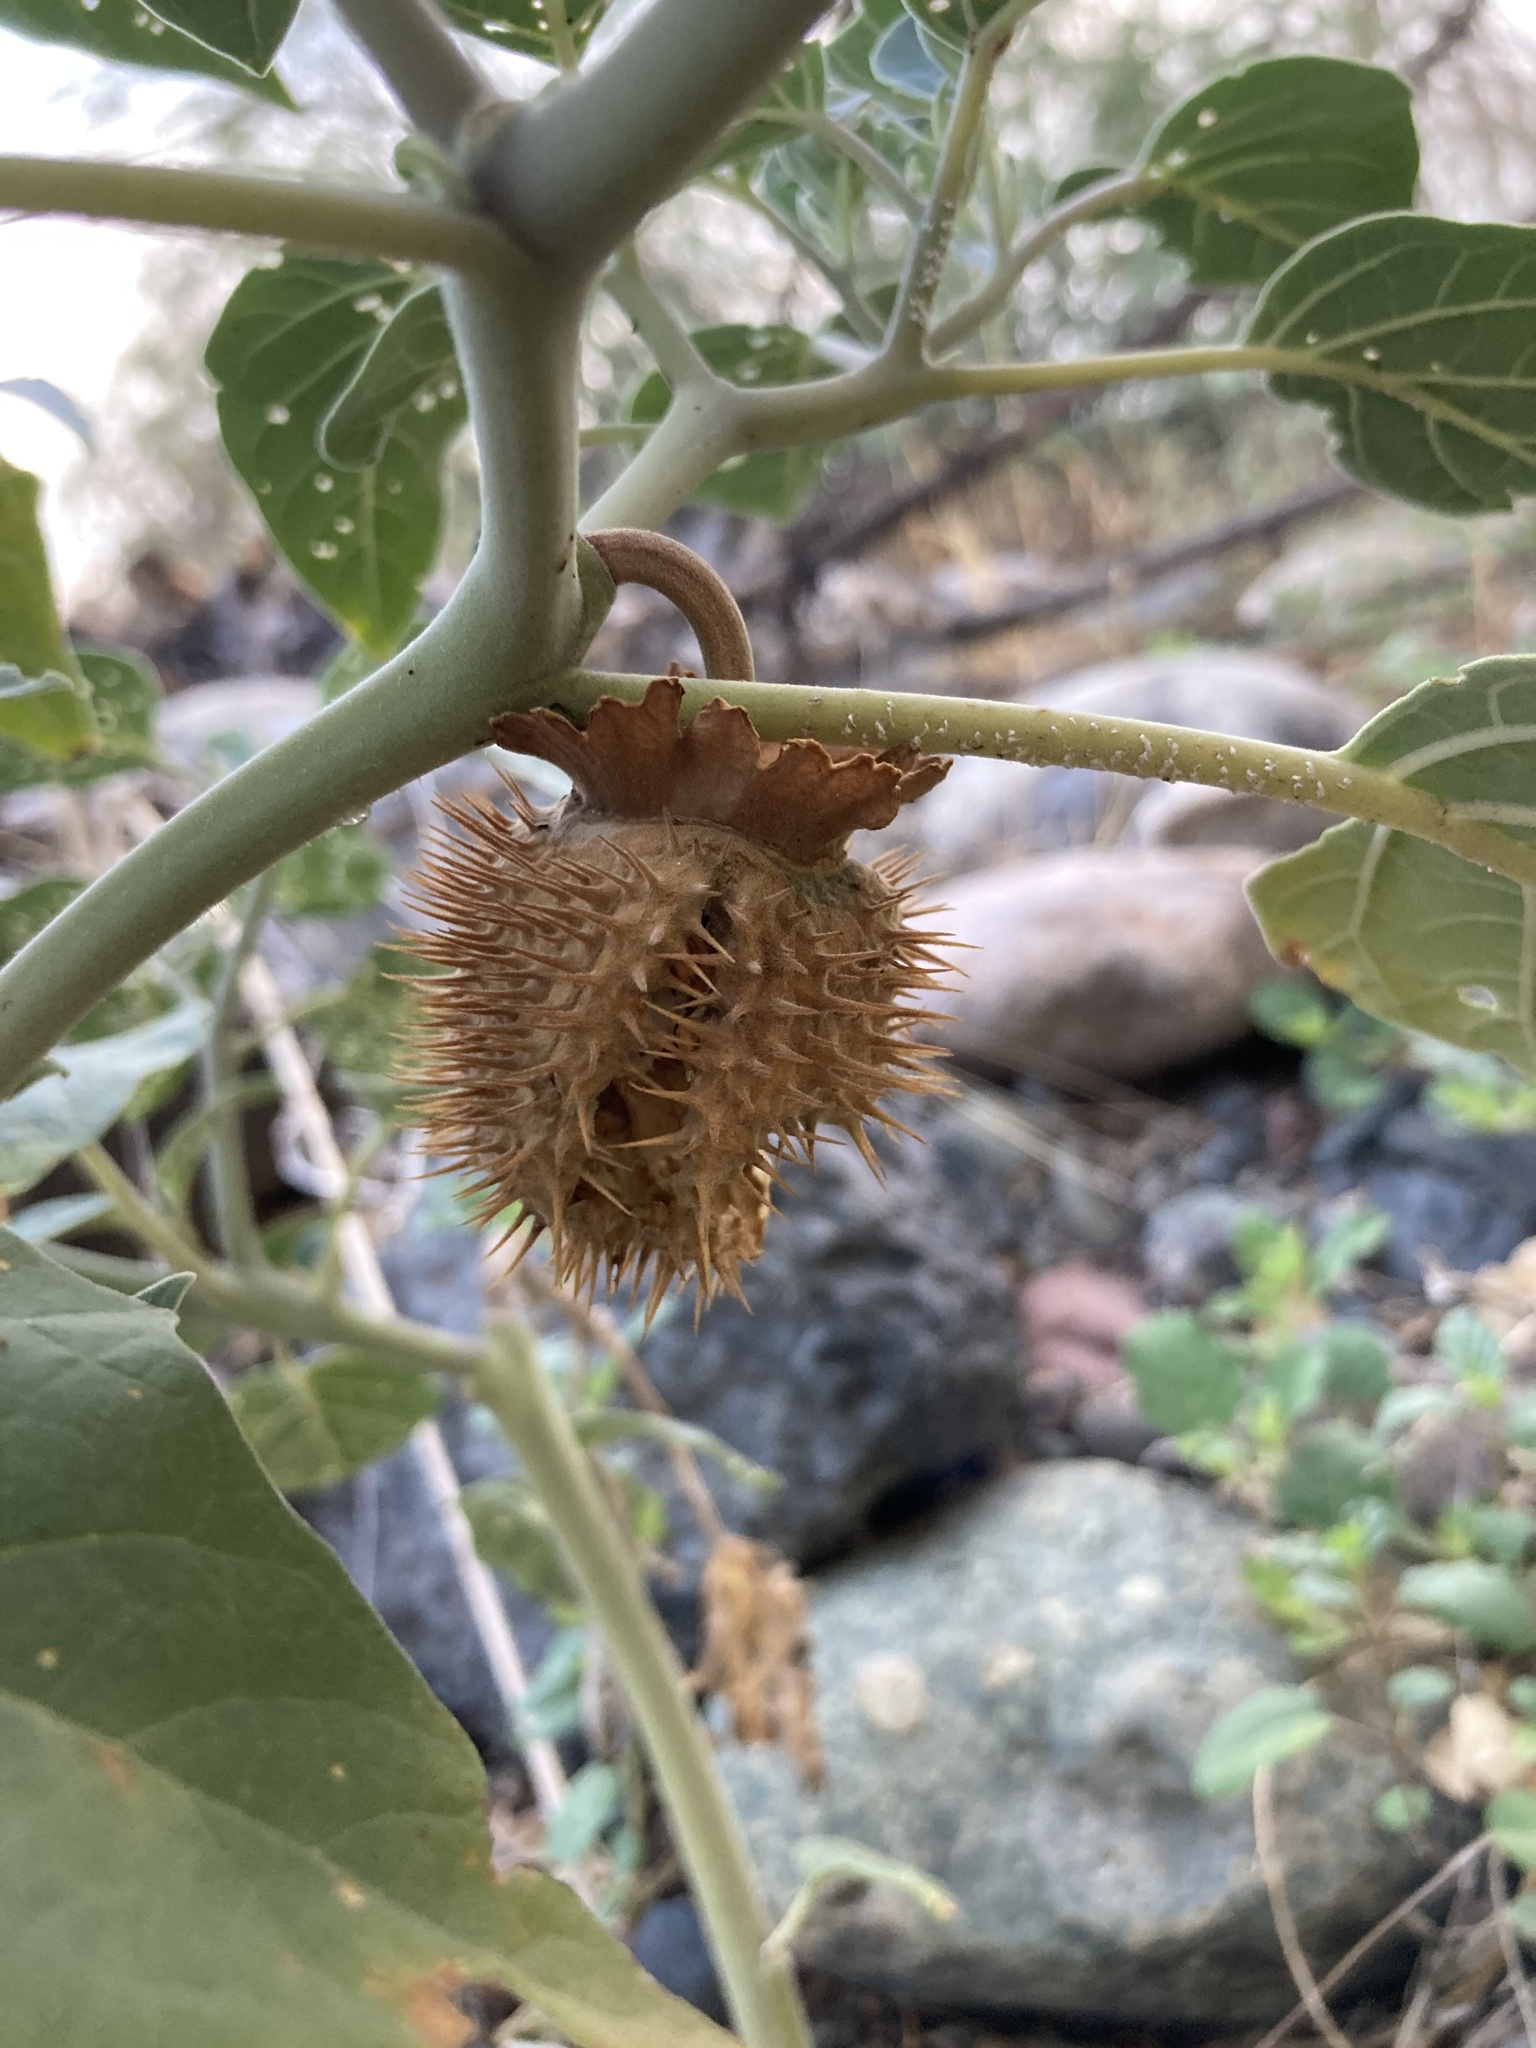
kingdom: Plantae
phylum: Tracheophyta
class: Magnoliopsida
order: Solanales
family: Solanaceae
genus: Datura
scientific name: Datura wrightii
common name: Sacred thorn-apple
